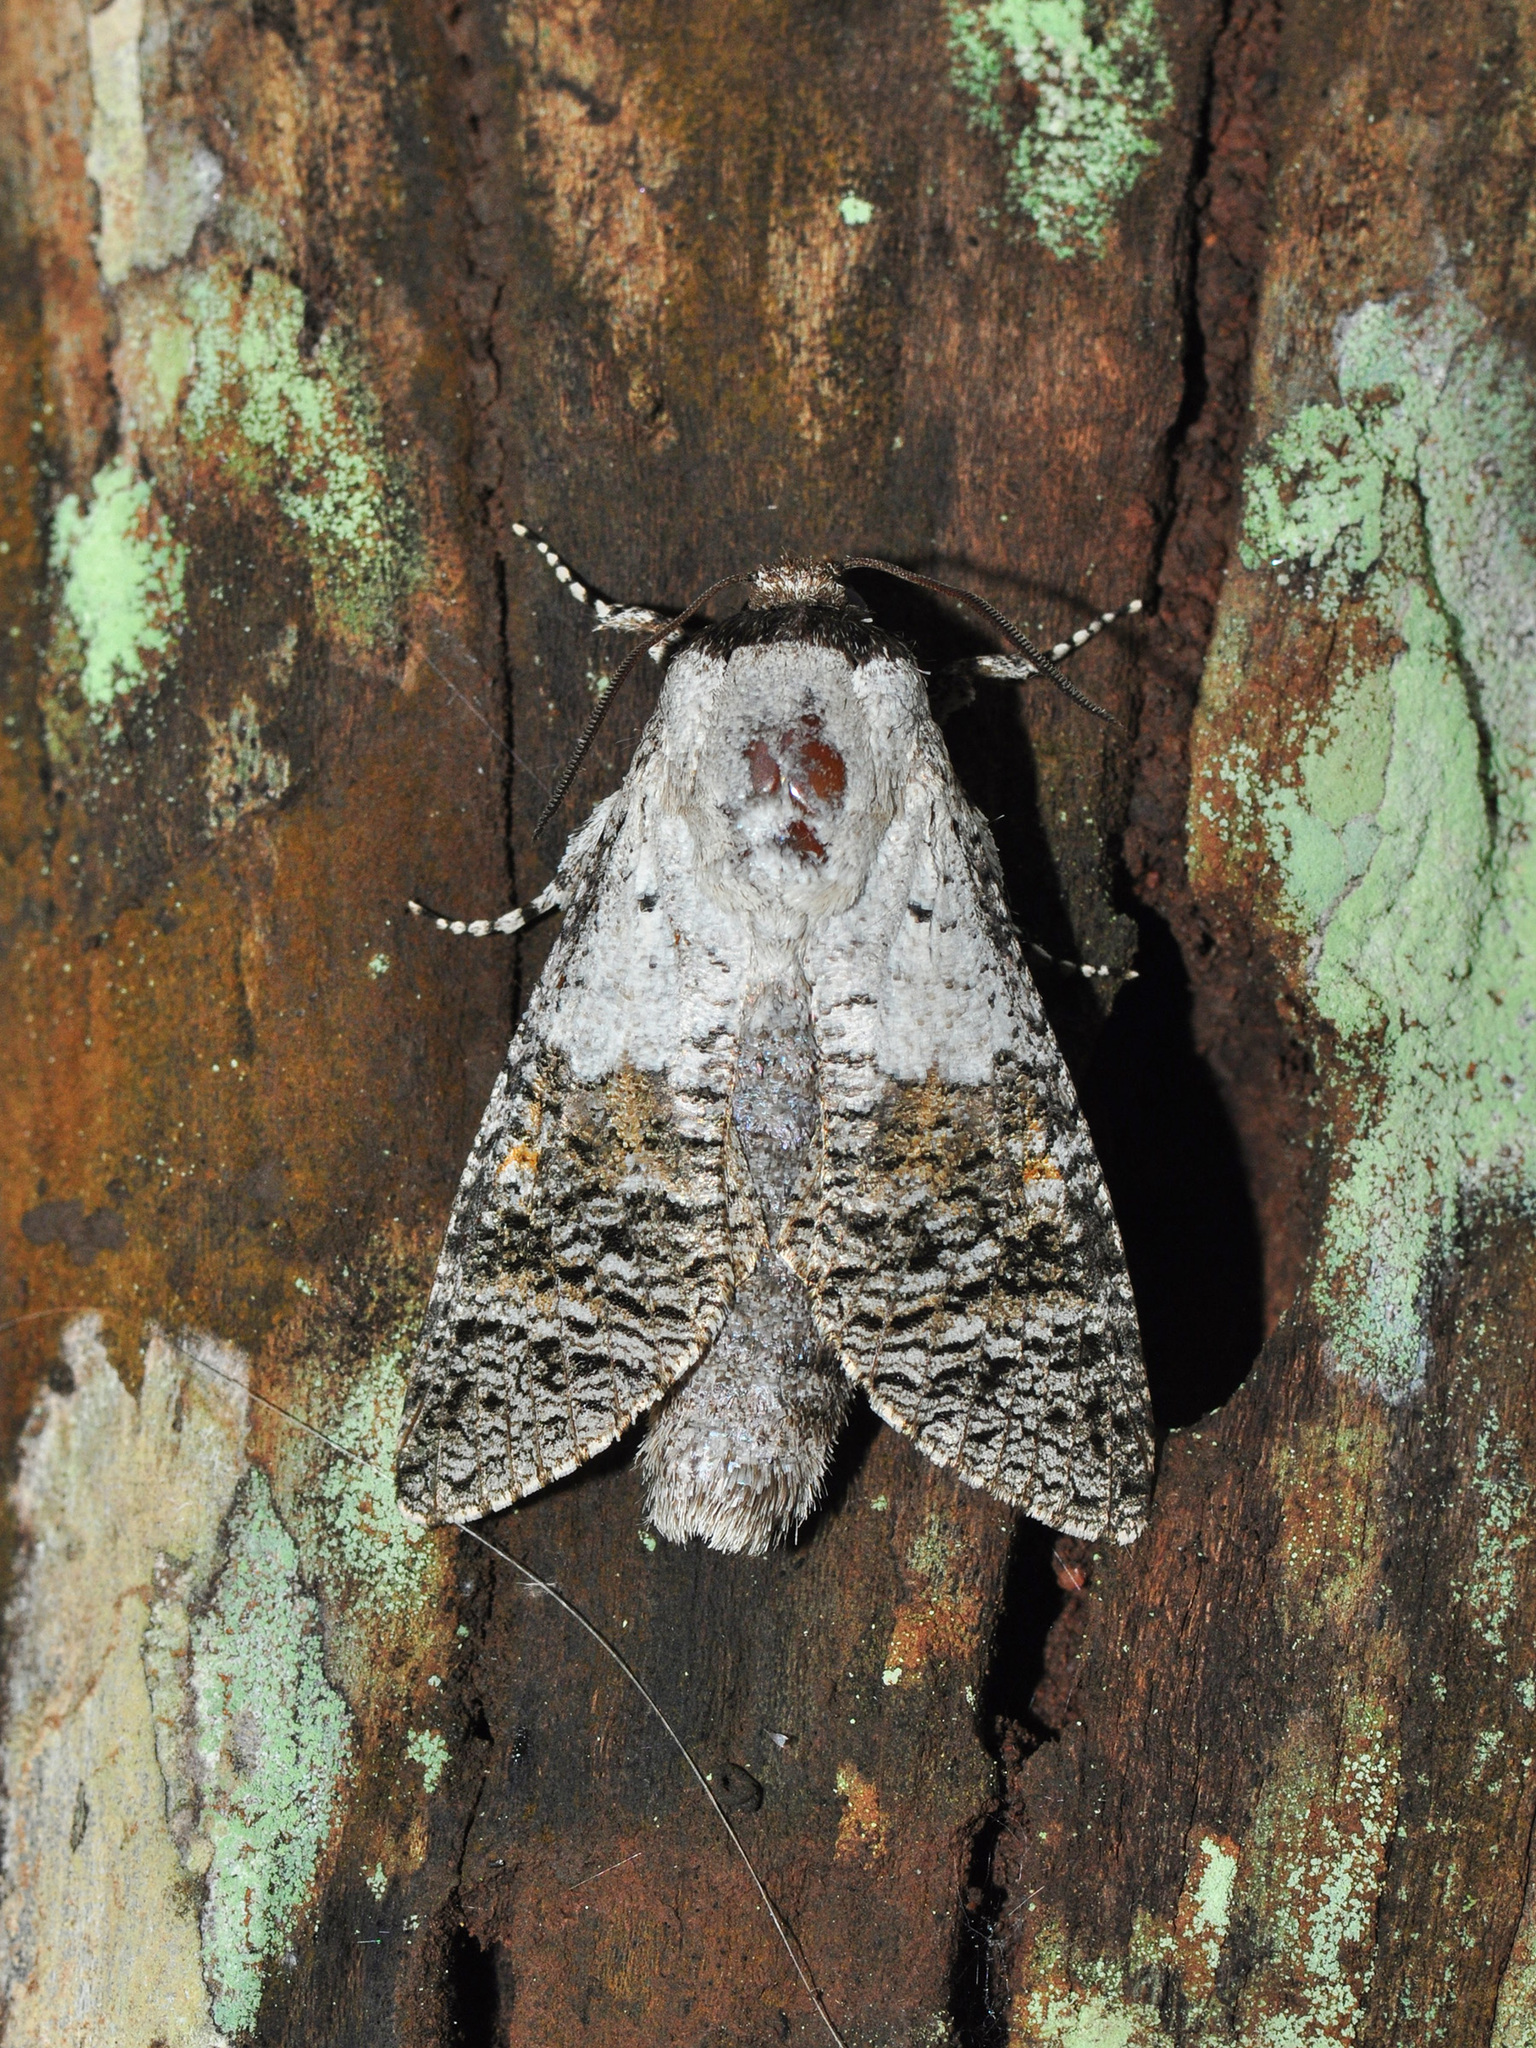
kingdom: Animalia
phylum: Arthropoda
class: Insecta
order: Lepidoptera
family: Cossidae
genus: Wittocossus
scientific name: Wittocossus mokanshanesis
